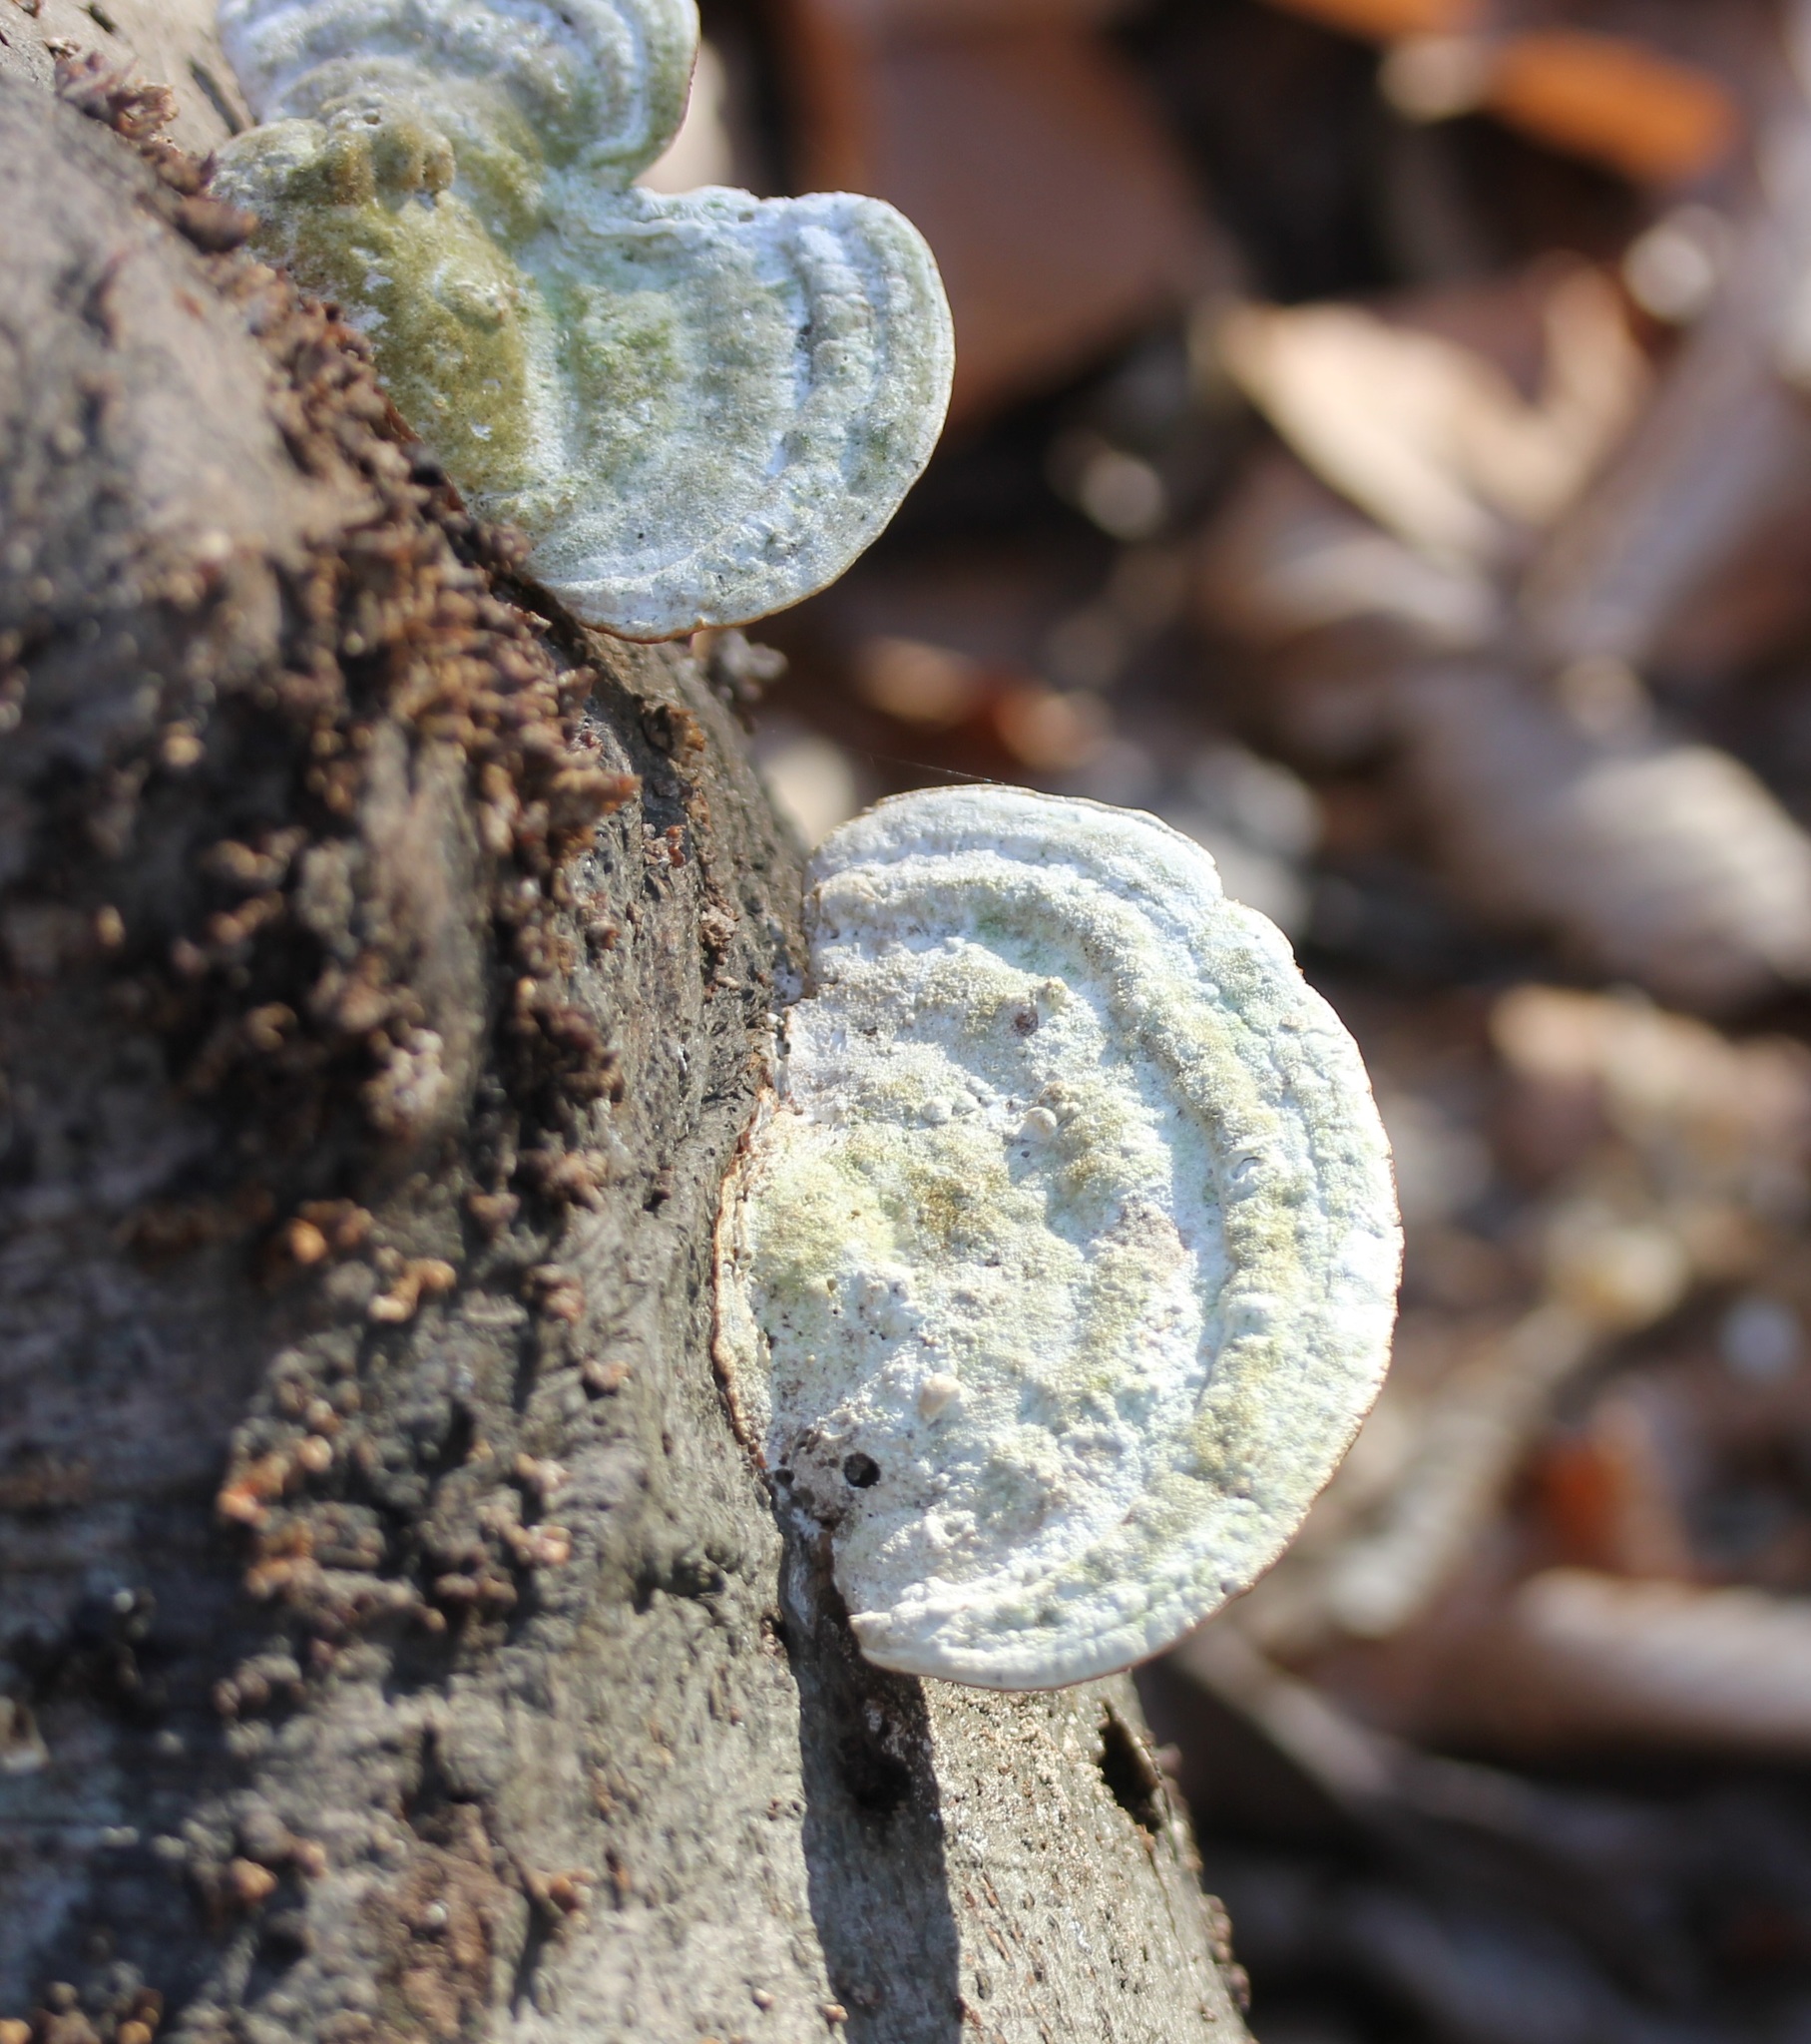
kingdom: Fungi
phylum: Basidiomycota
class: Agaricomycetes
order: Polyporales
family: Polyporaceae
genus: Trametes
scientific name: Trametes gibbosa
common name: Lumpy bracket
